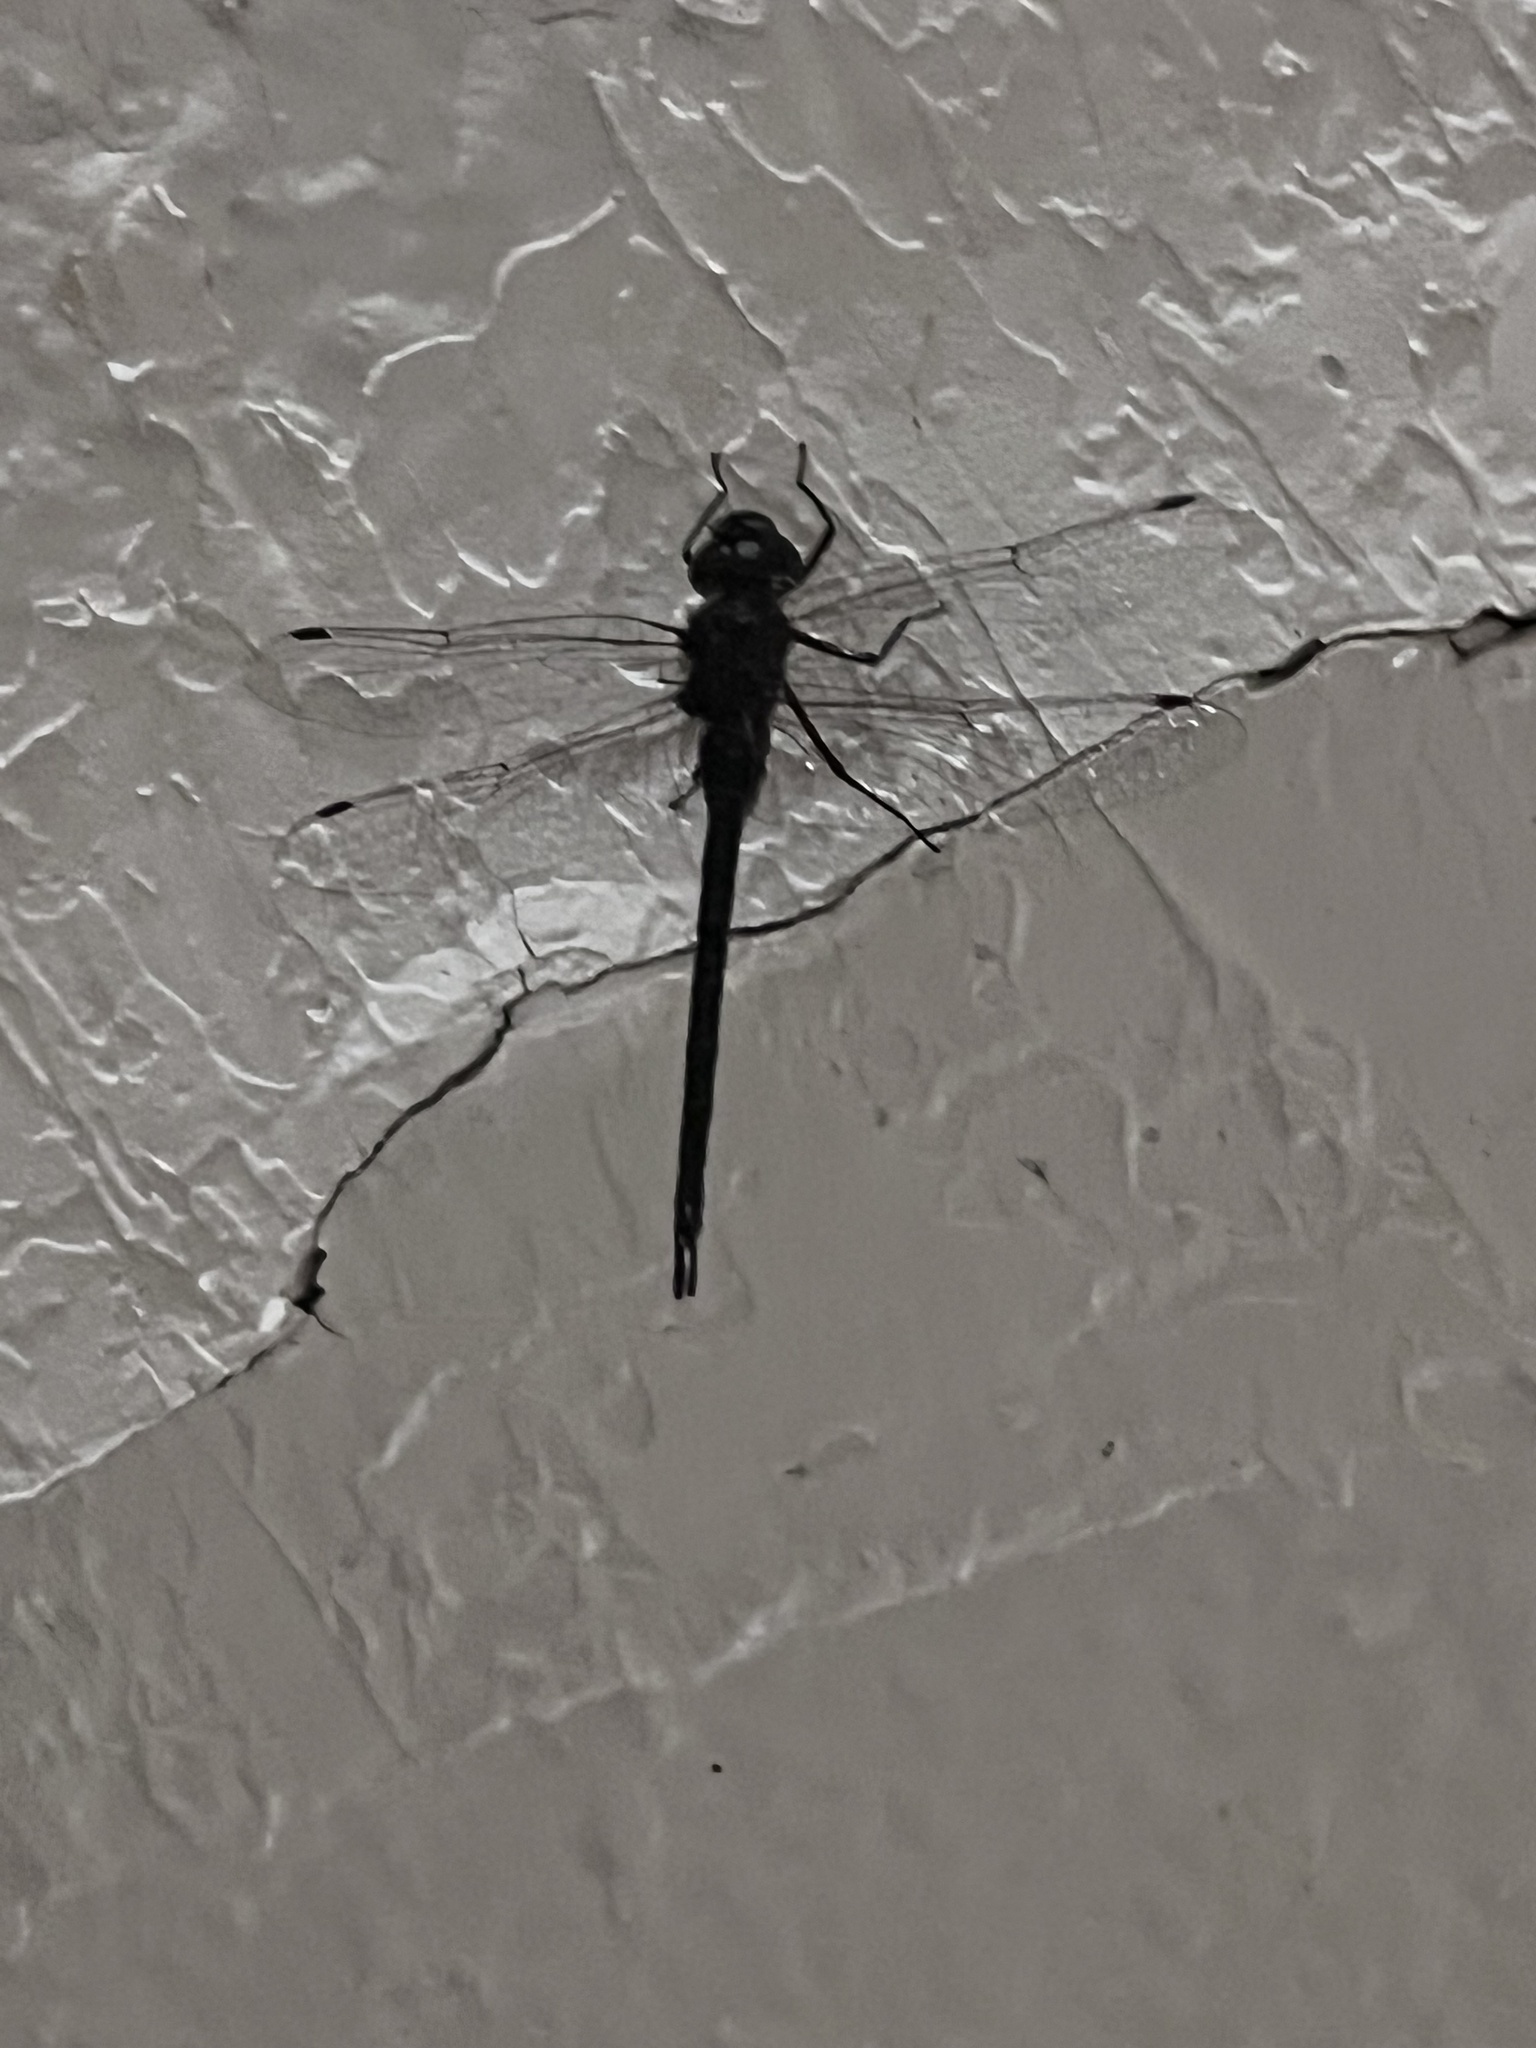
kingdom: Animalia
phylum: Arthropoda
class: Insecta
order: Odonata
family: Aeshnidae
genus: Gomphaeschna
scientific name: Gomphaeschna antilope
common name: Taper-tailed darner
